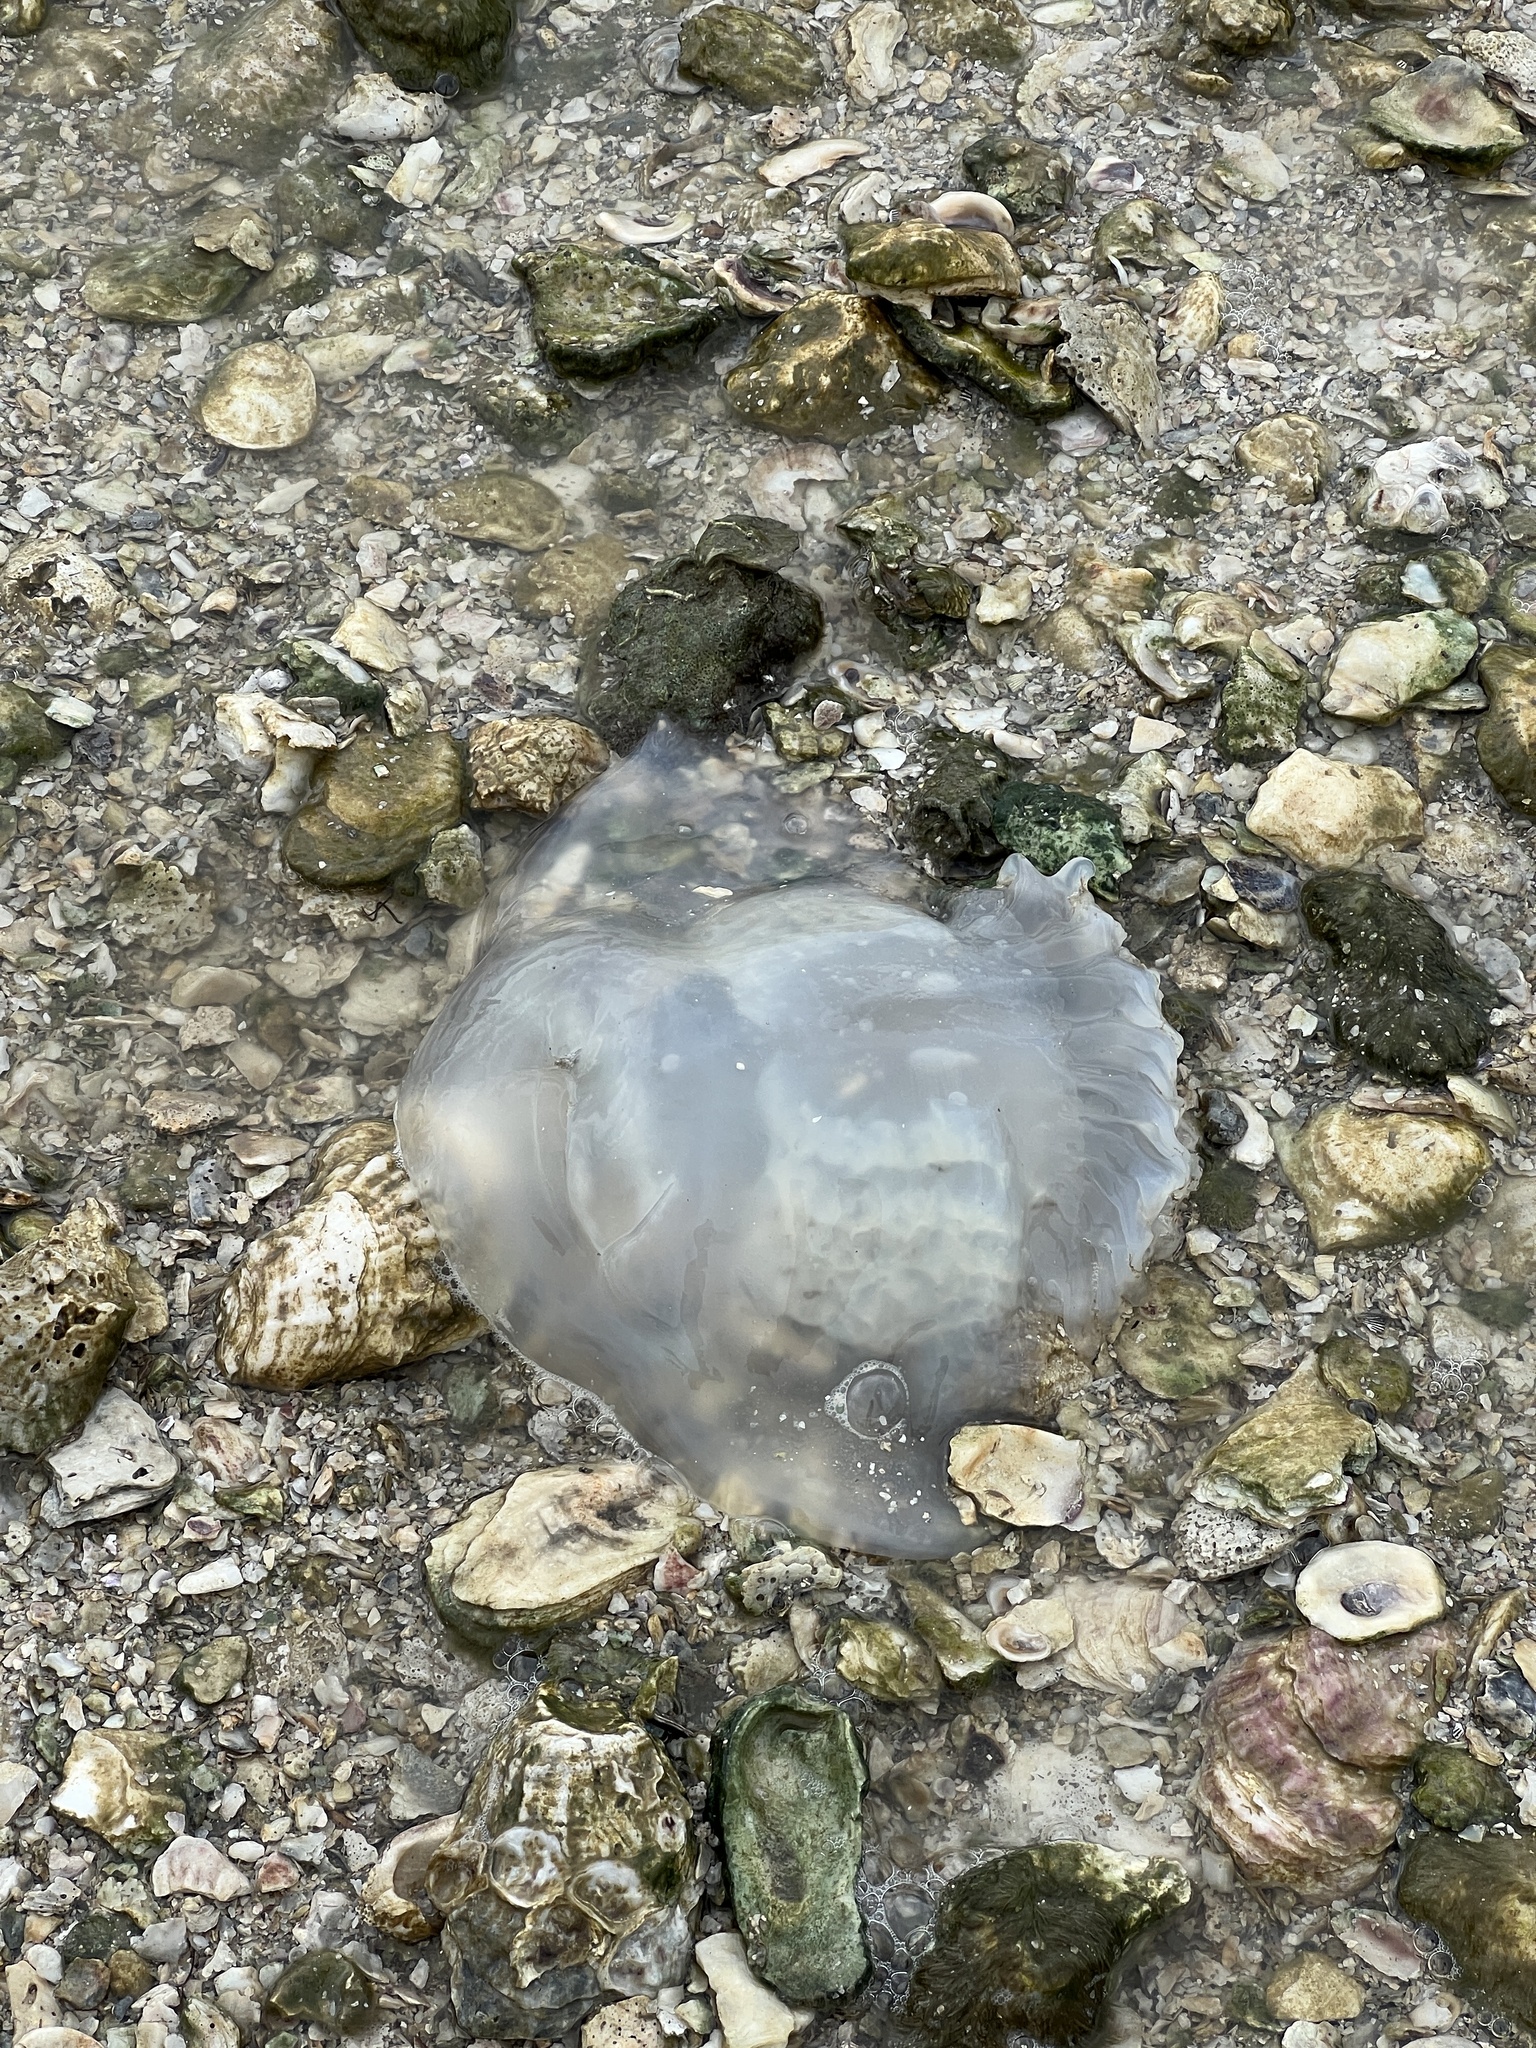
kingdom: Animalia
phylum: Cnidaria
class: Scyphozoa
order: Rhizostomeae
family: Stomolophidae
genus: Stomolophus
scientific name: Stomolophus meleagris
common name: Cabbagehead
